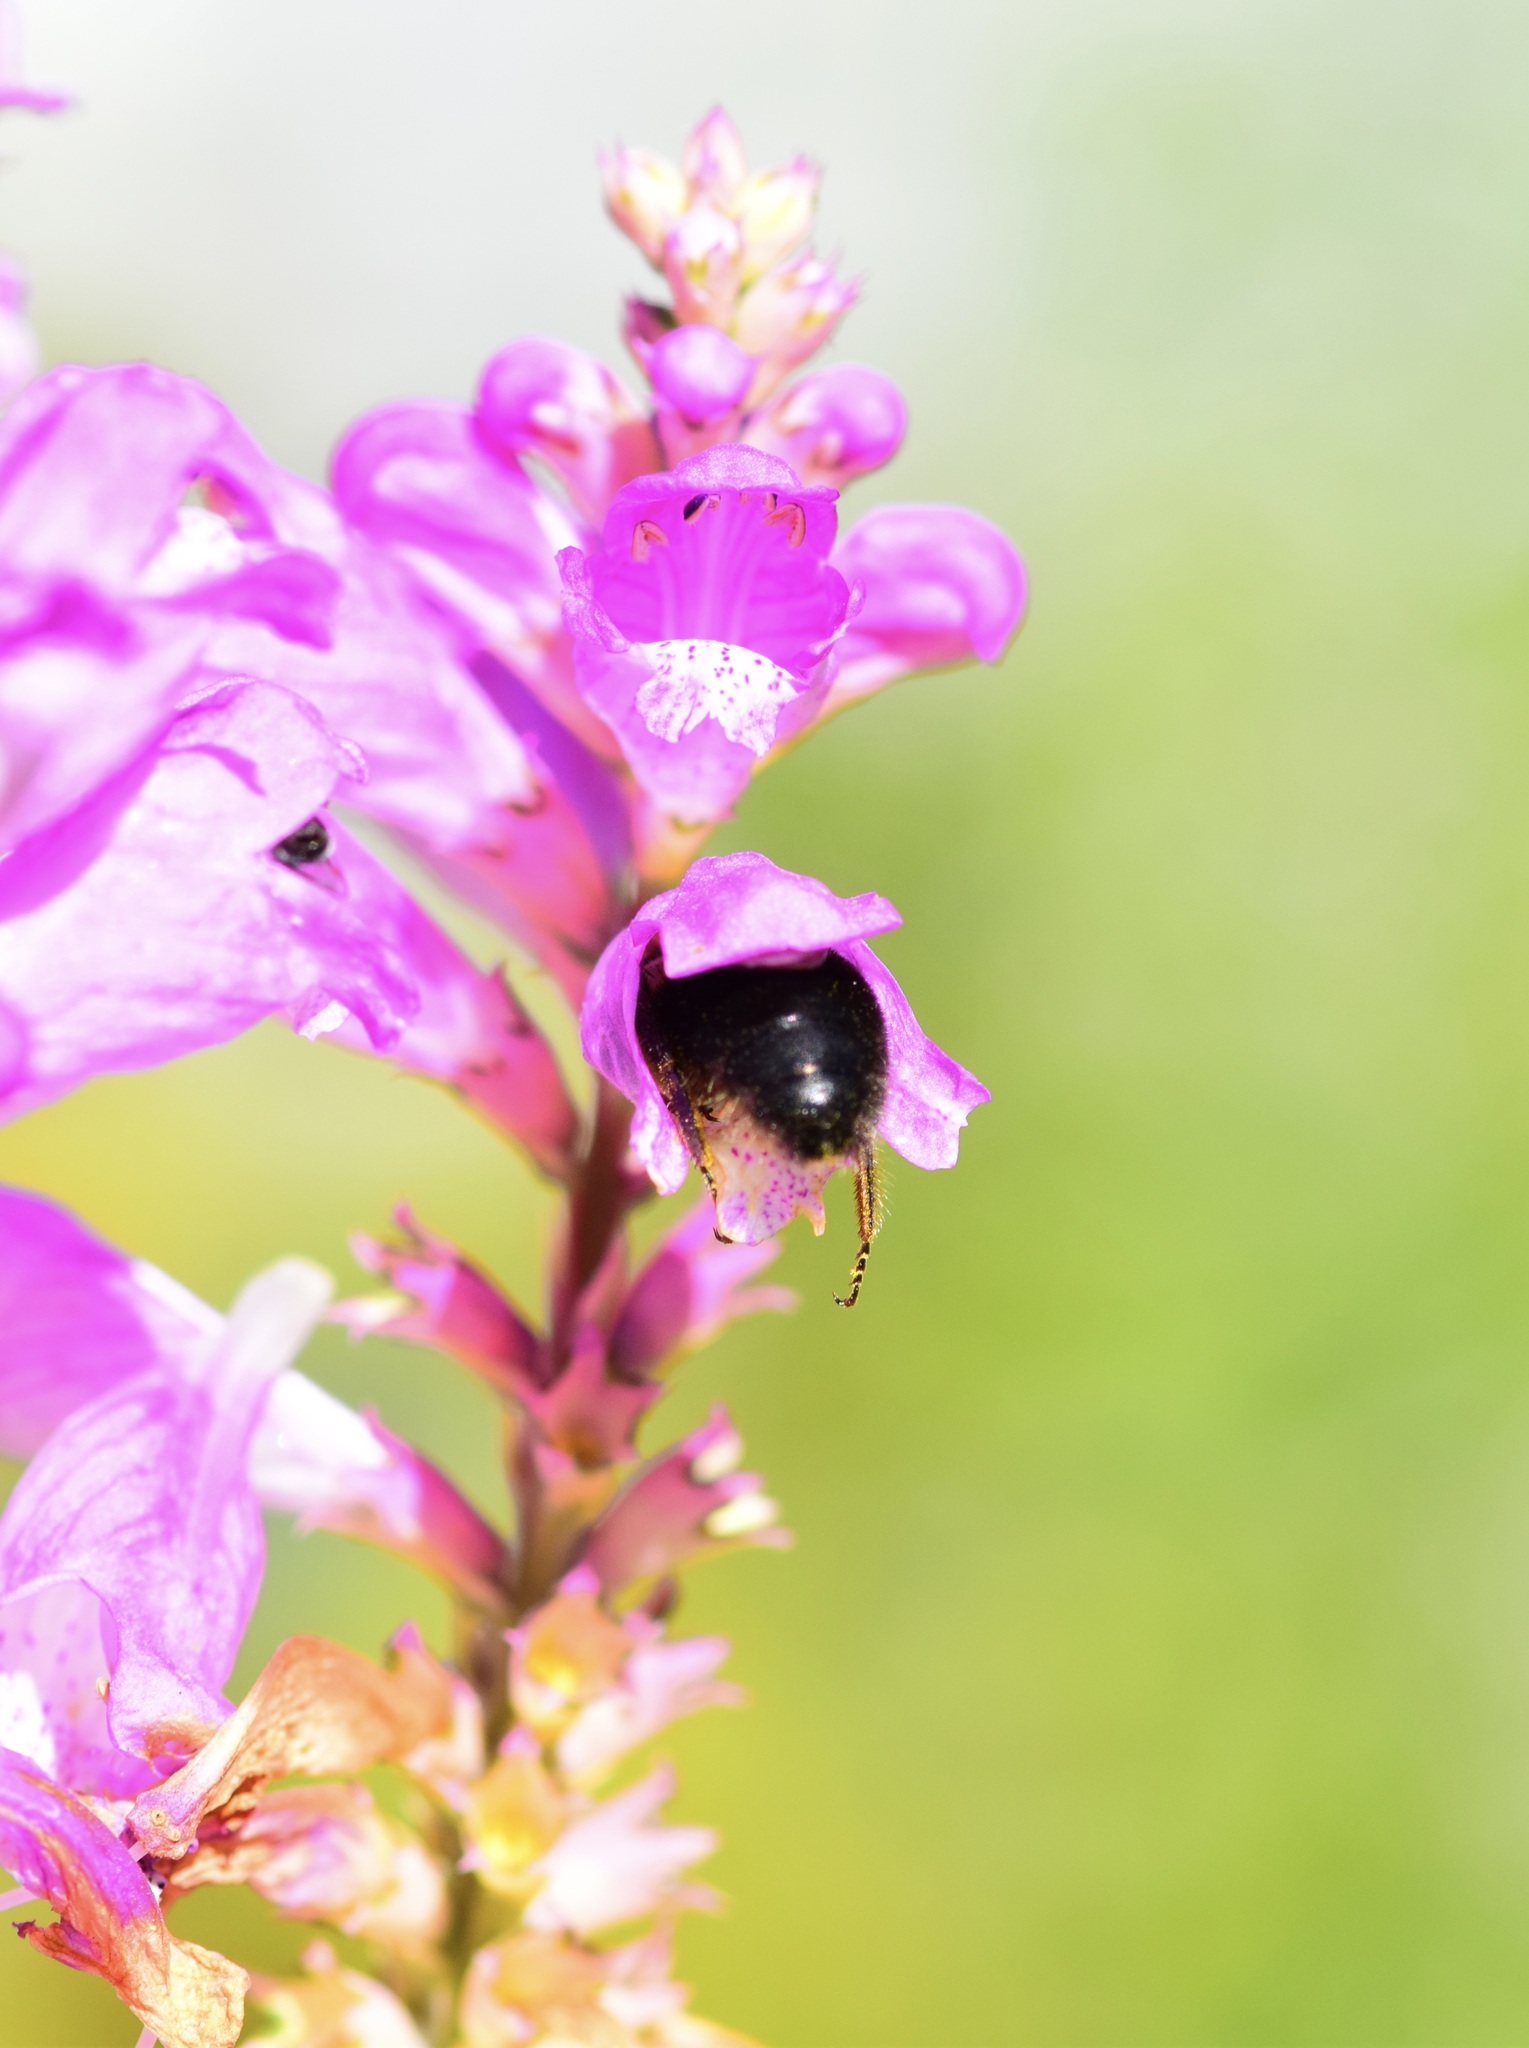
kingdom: Animalia
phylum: Arthropoda
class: Insecta
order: Hymenoptera
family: Apidae
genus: Bombus
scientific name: Bombus impatiens
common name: Common eastern bumble bee
